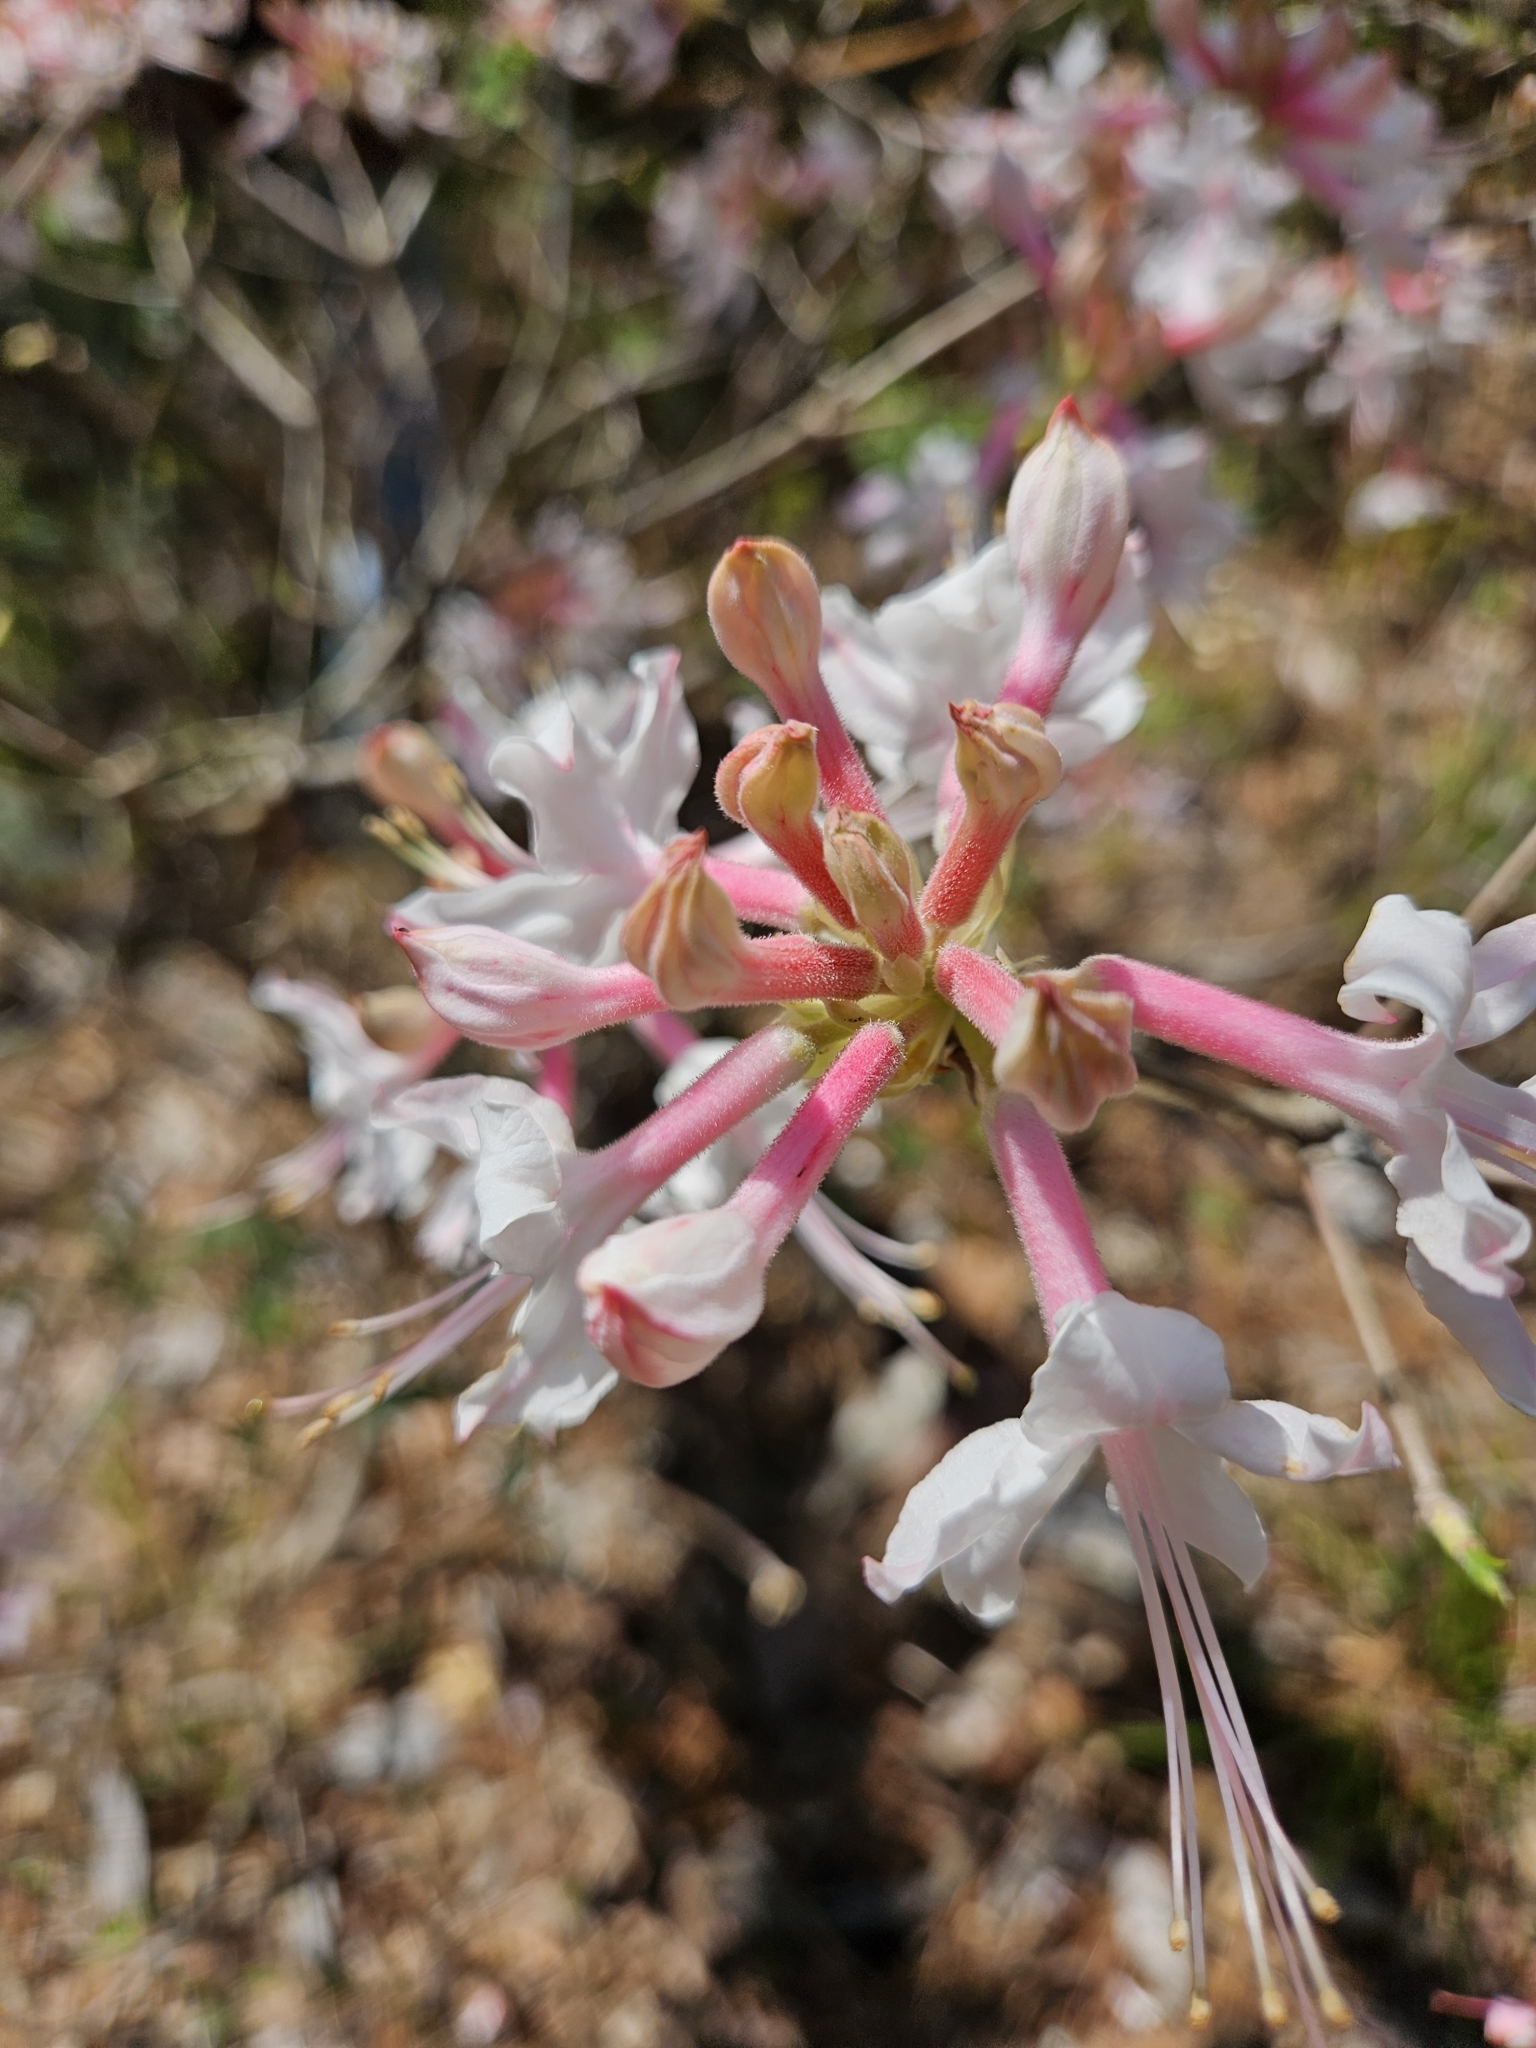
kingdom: Plantae
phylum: Tracheophyta
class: Magnoliopsida
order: Ericales
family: Ericaceae
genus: Rhododendron
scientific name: Rhododendron canescens
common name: Mountain azalea
